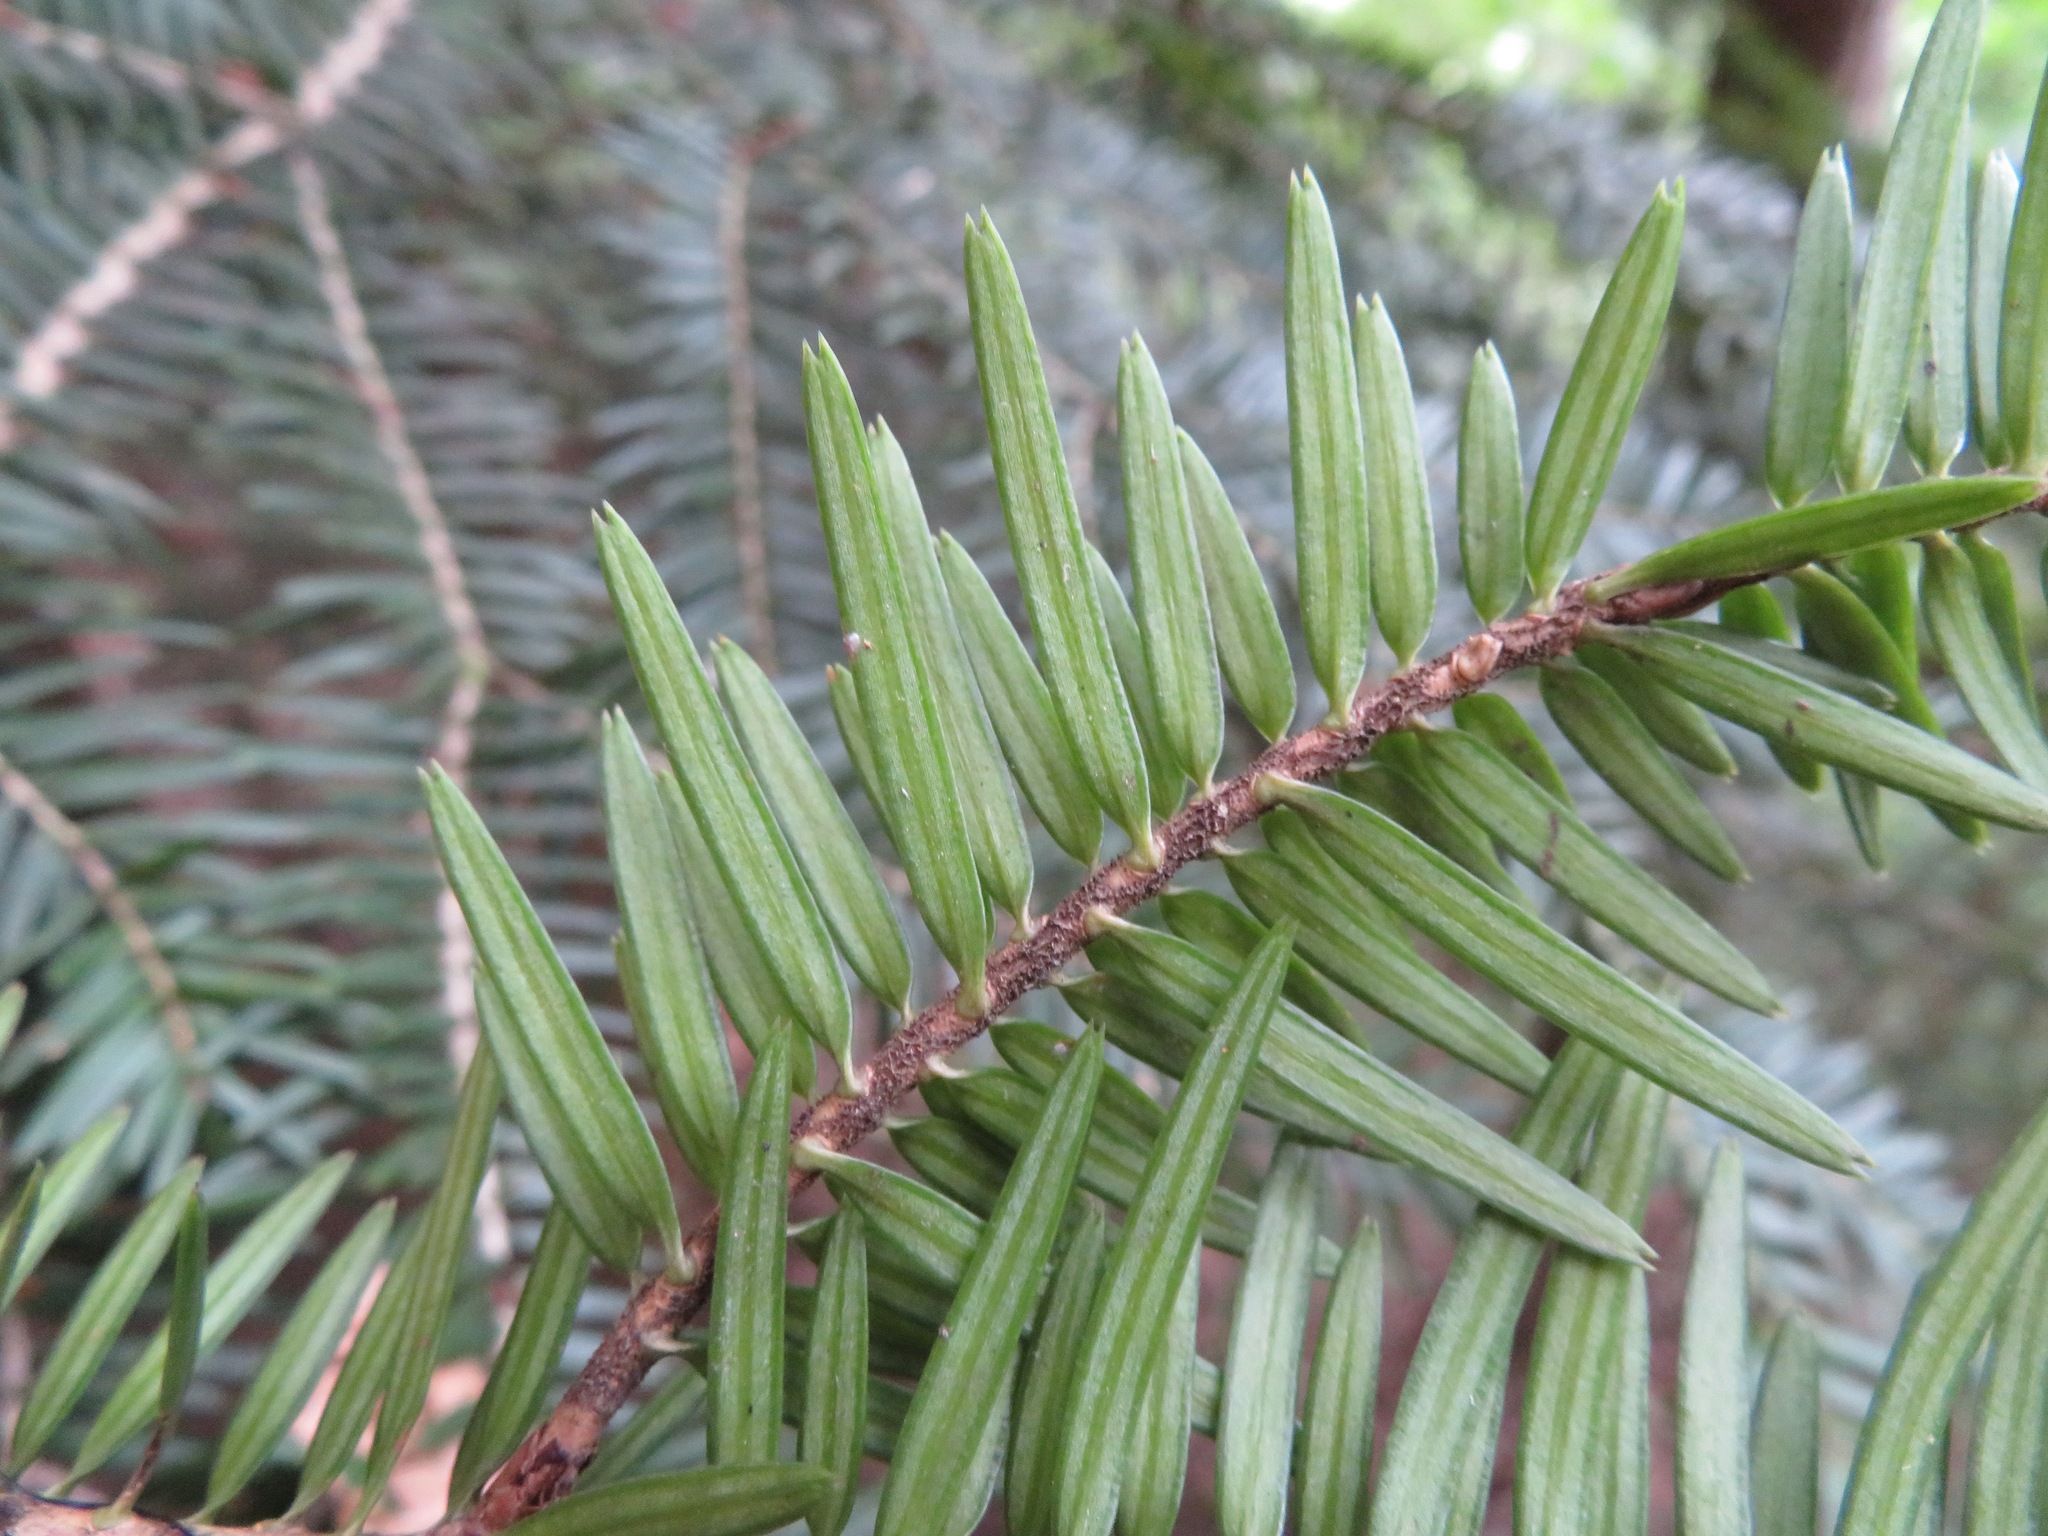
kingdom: Plantae
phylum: Tracheophyta
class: Pinopsida
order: Pinales
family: Pinaceae
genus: Abies
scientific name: Abies firma
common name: Momi fir
